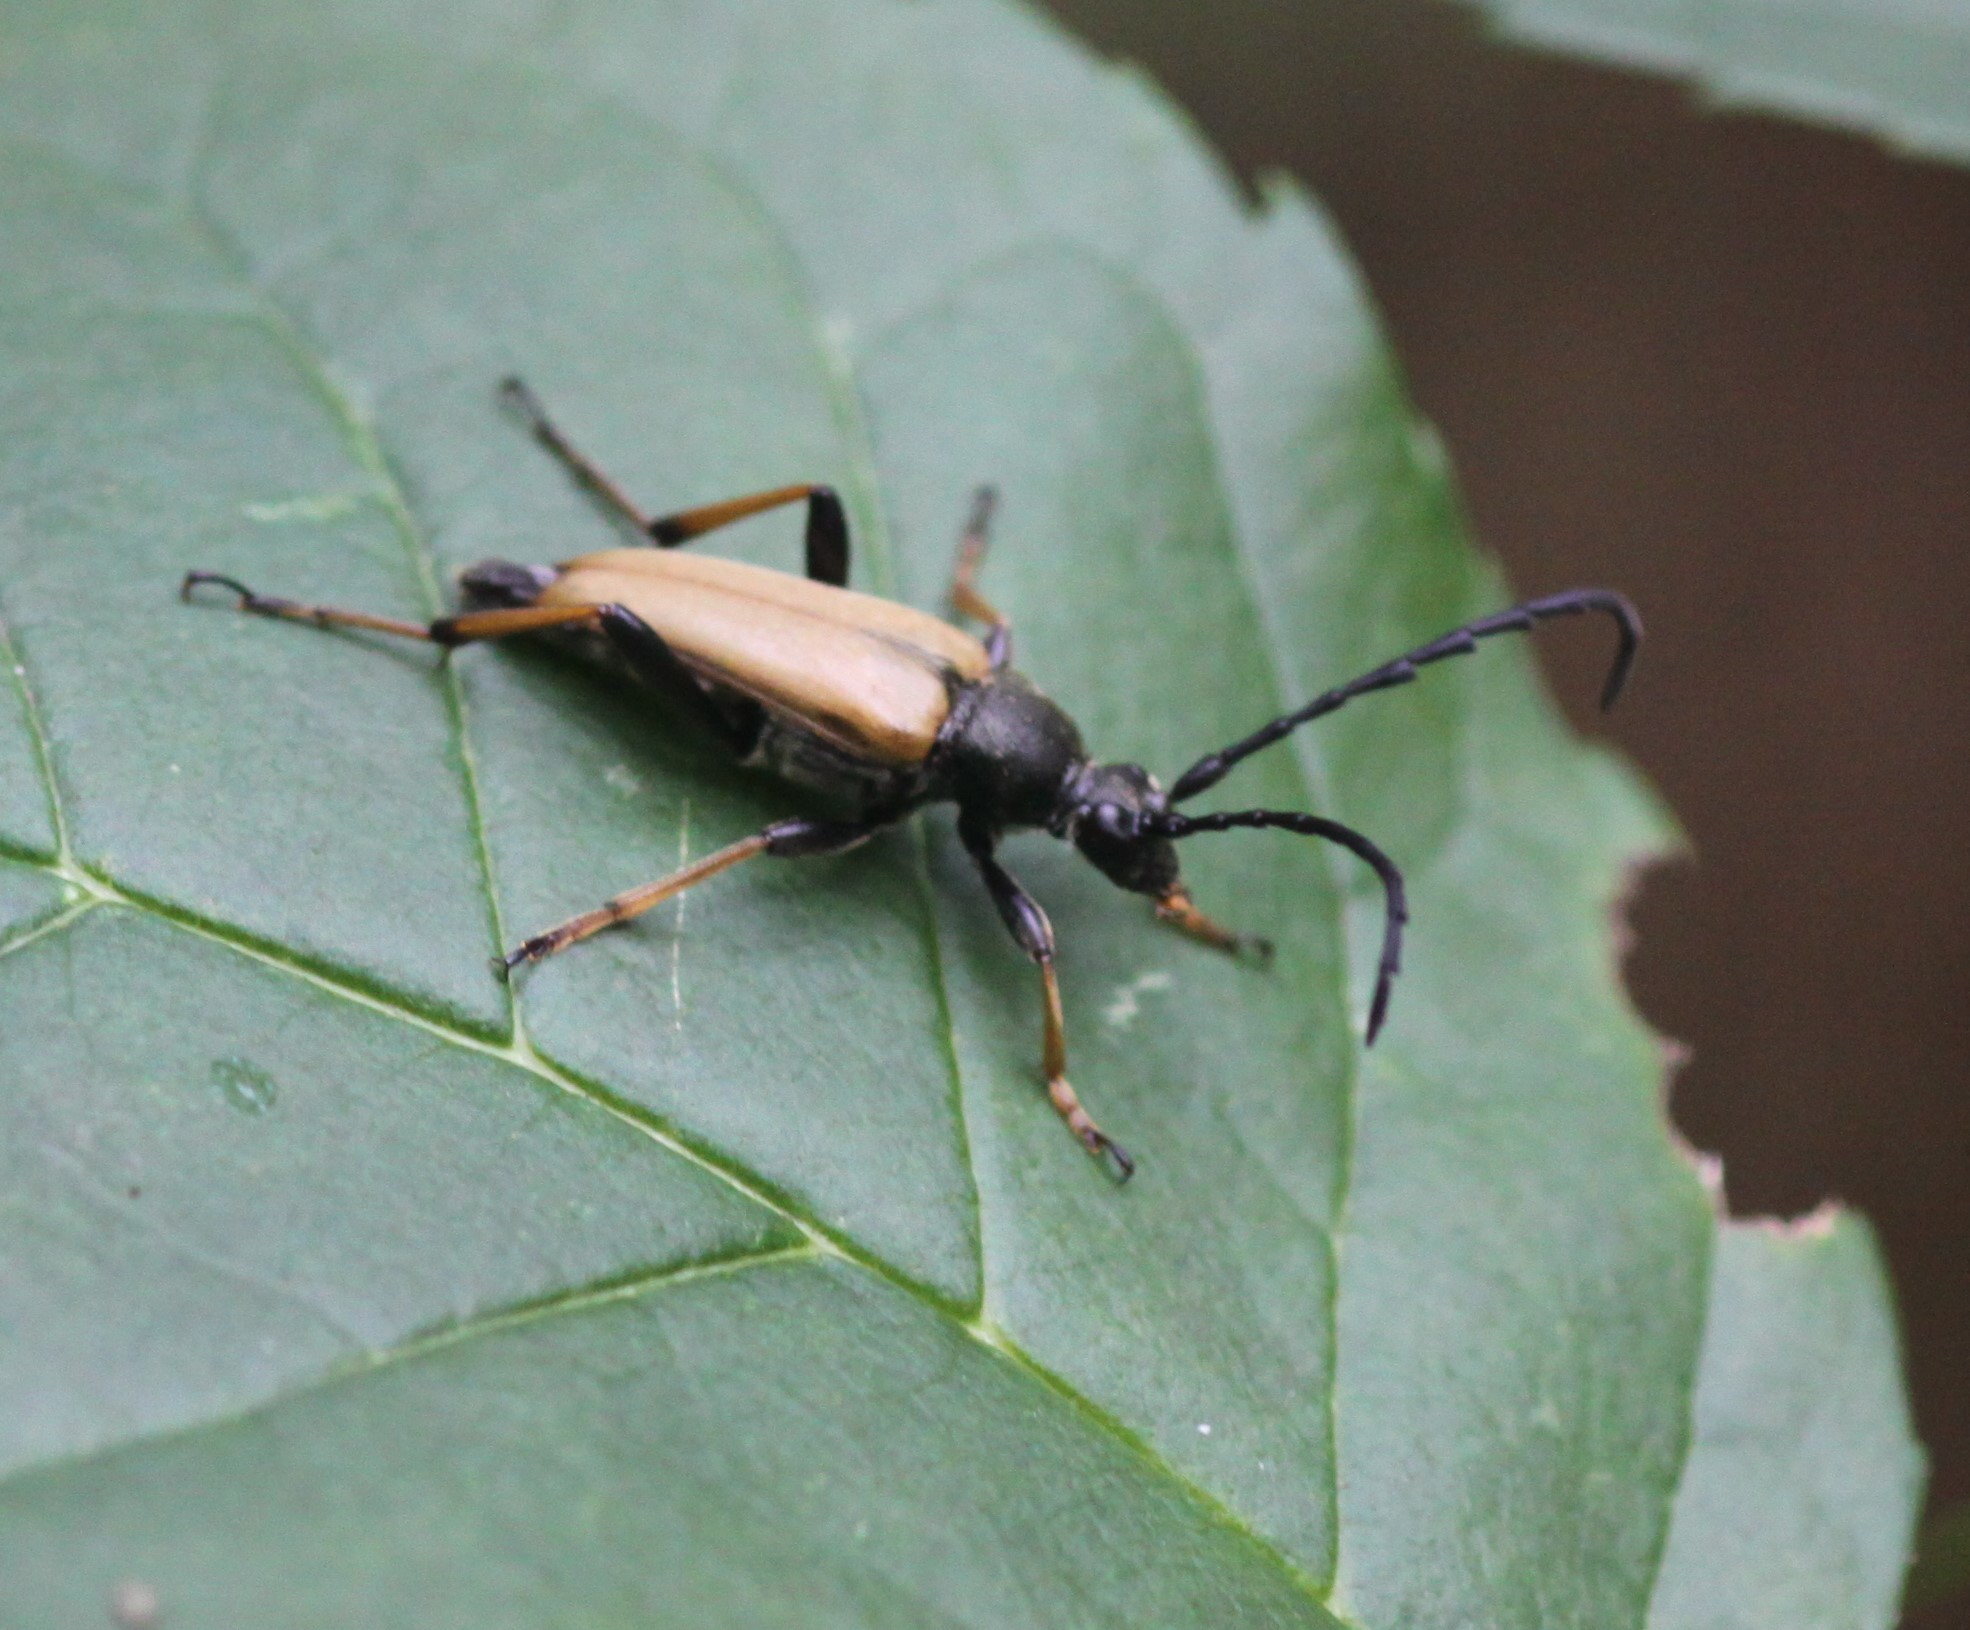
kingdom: Animalia
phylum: Arthropoda
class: Insecta
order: Coleoptera
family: Cerambycidae
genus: Stictoleptura
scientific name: Stictoleptura rubra
